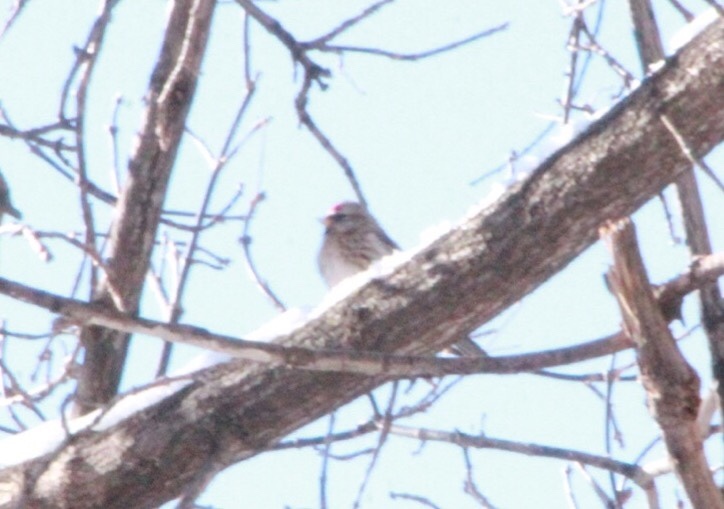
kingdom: Animalia
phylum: Chordata
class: Aves
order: Passeriformes
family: Fringillidae
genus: Acanthis
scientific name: Acanthis flammea
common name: Common redpoll
